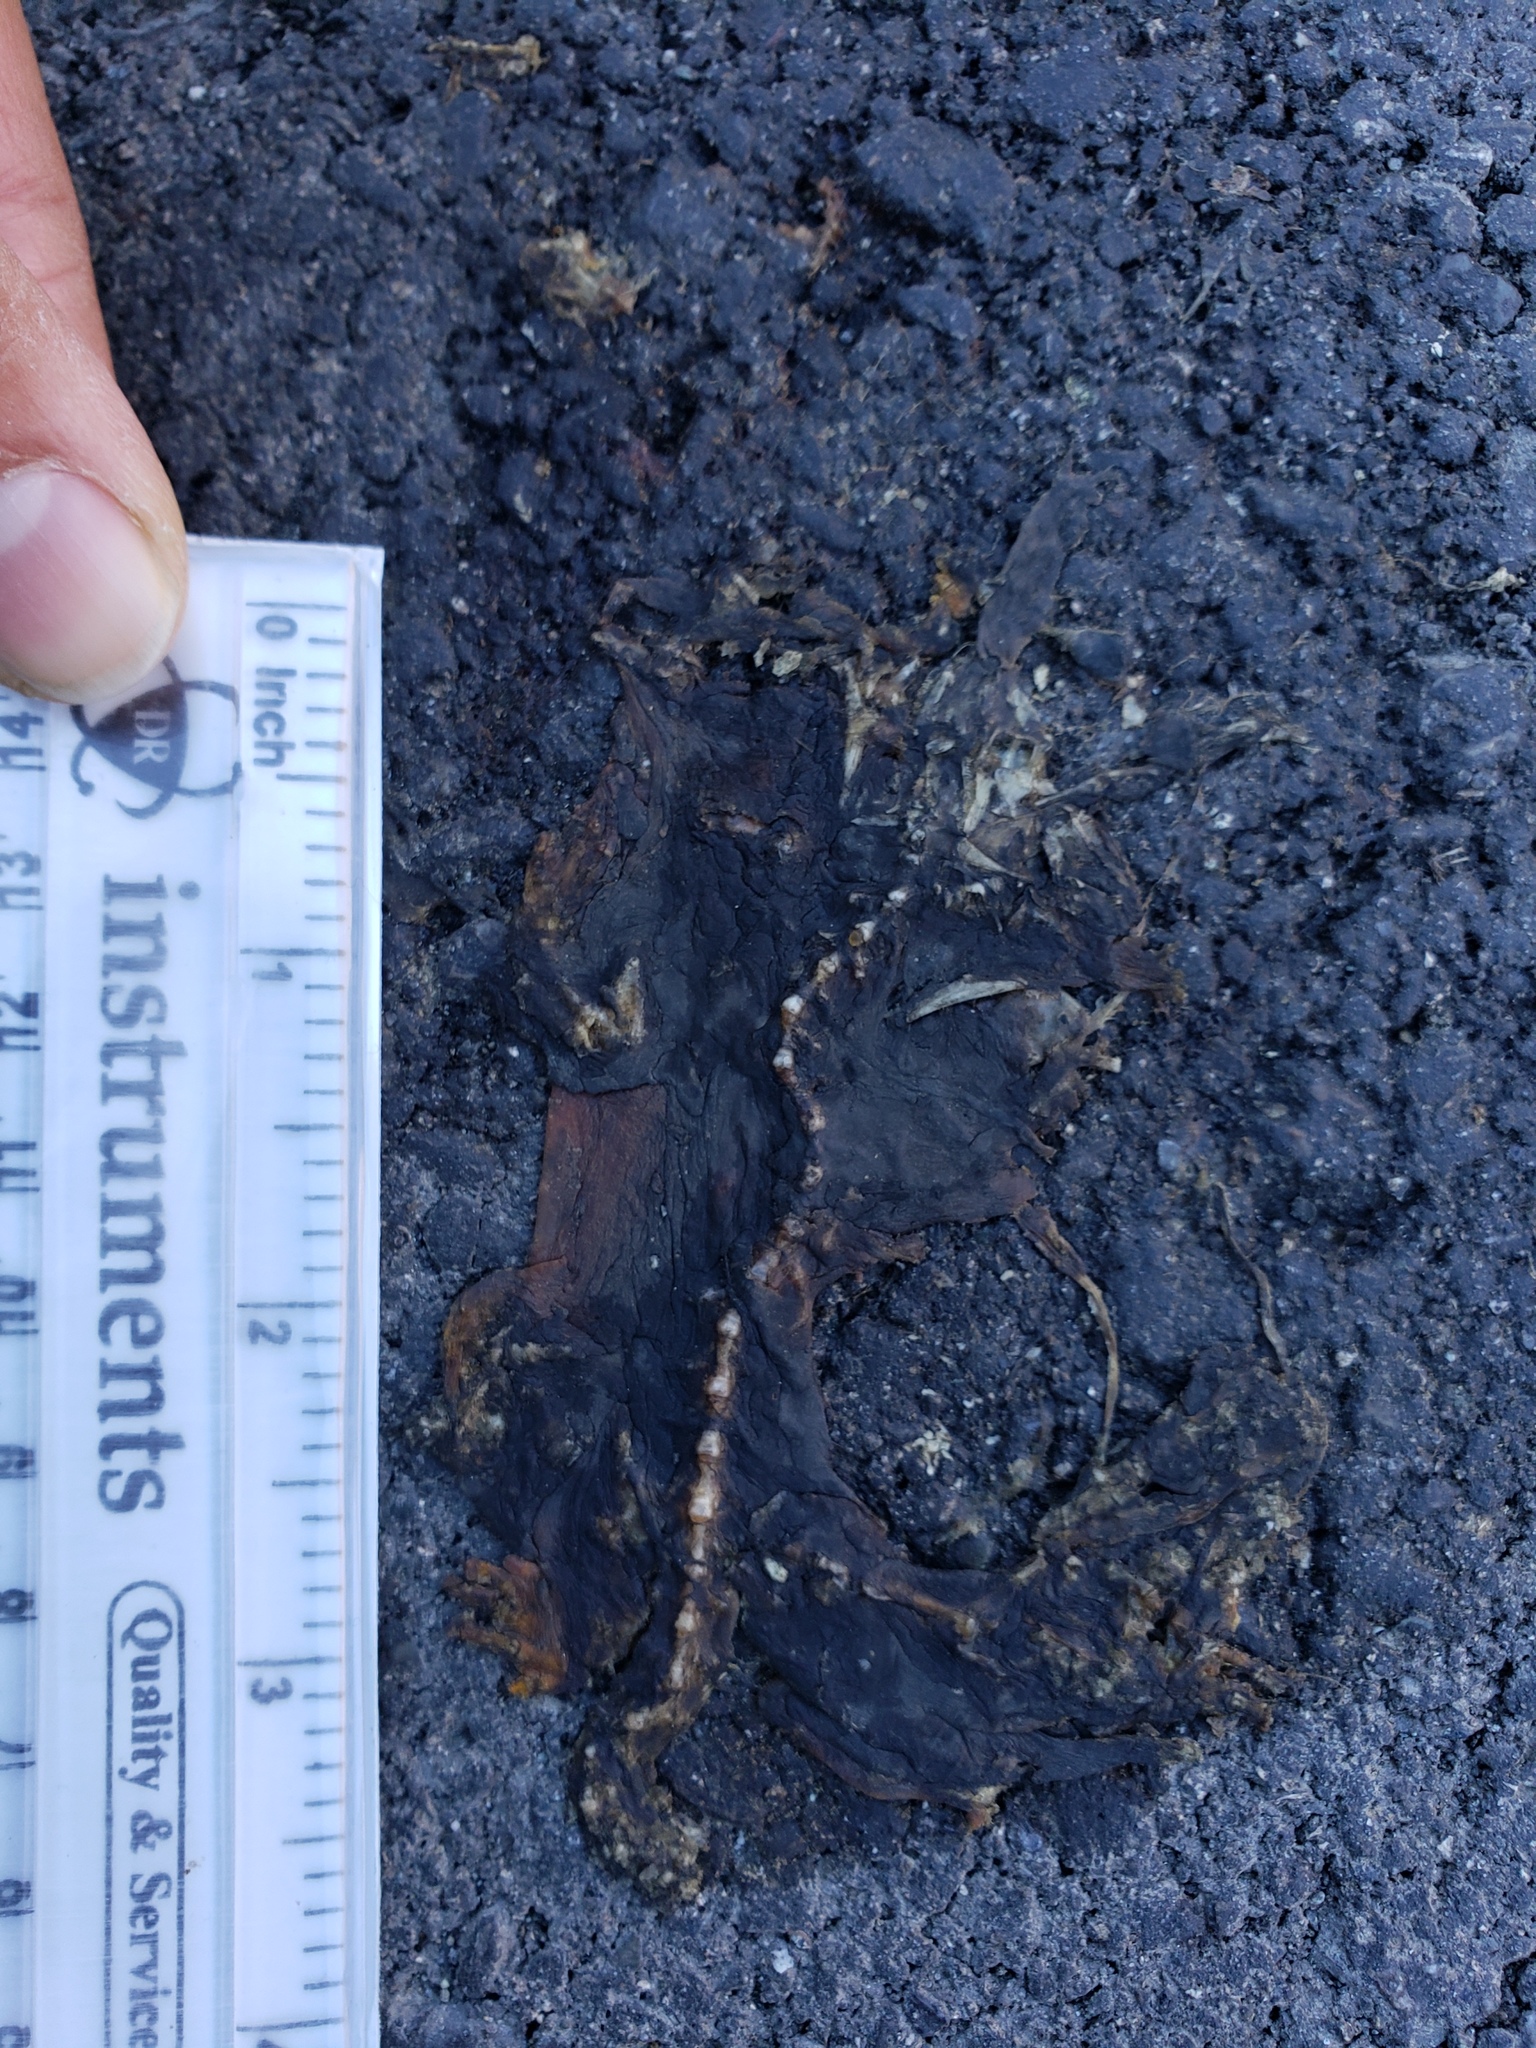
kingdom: Animalia
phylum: Chordata
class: Amphibia
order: Caudata
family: Salamandridae
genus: Taricha
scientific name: Taricha
